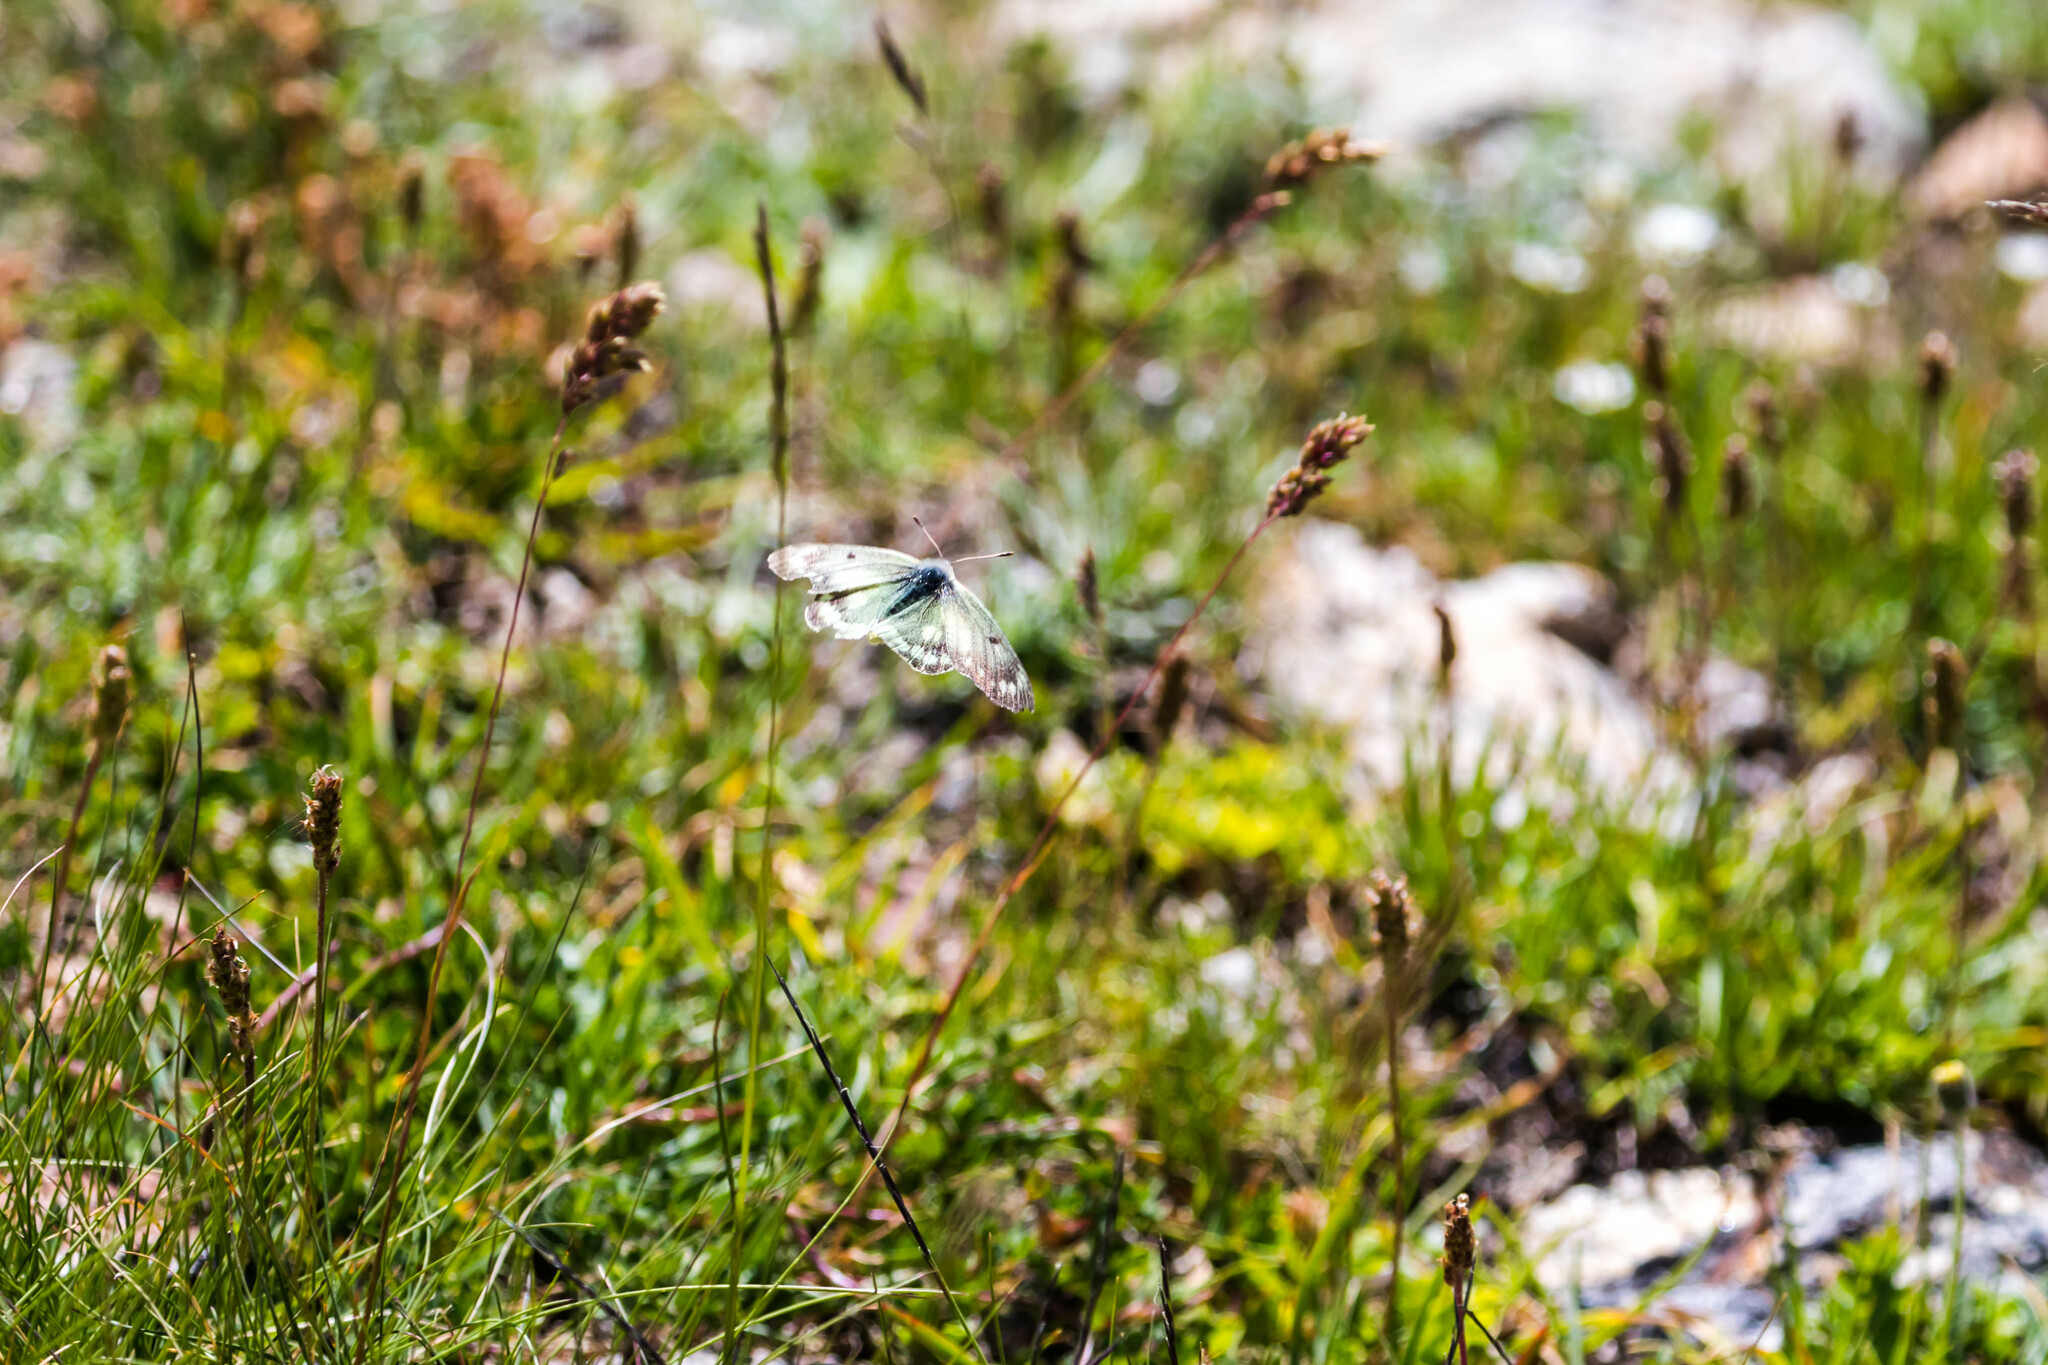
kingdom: Animalia
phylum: Arthropoda
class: Insecta
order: Lepidoptera
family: Pieridae
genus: Colias
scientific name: Colias phicomone
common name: Mountain clouded yellow
